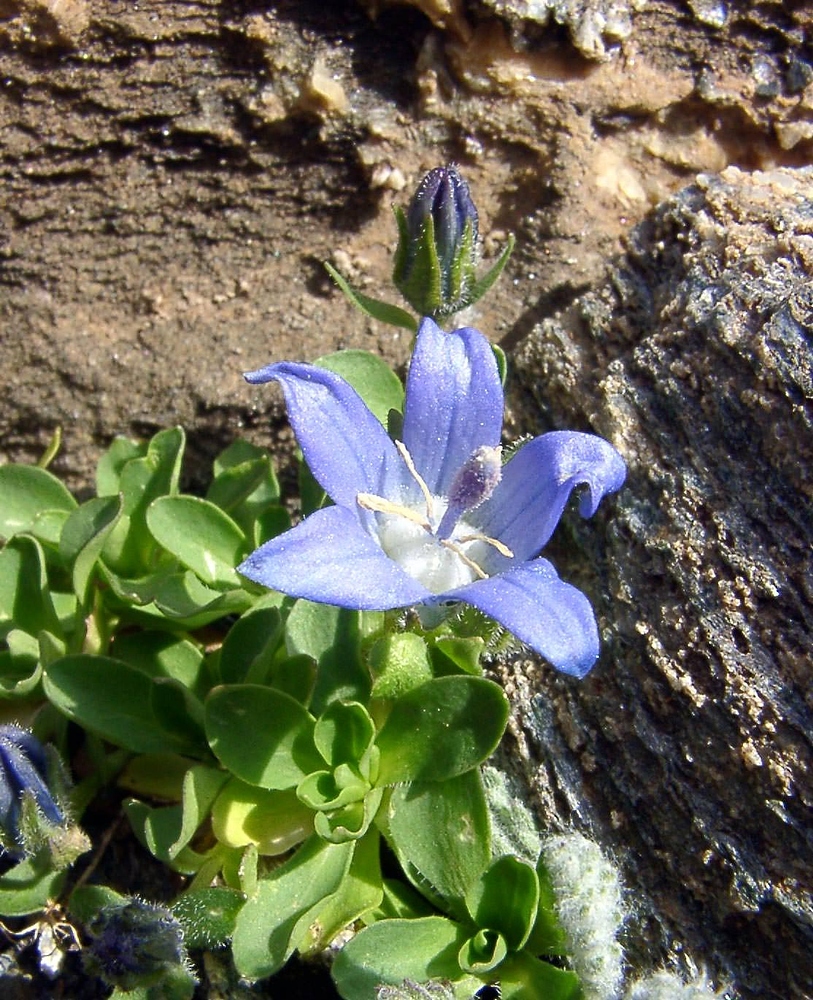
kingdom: Plantae
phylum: Tracheophyta
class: Magnoliopsida
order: Asterales
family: Campanulaceae
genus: Campanula
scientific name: Campanula cenisia
